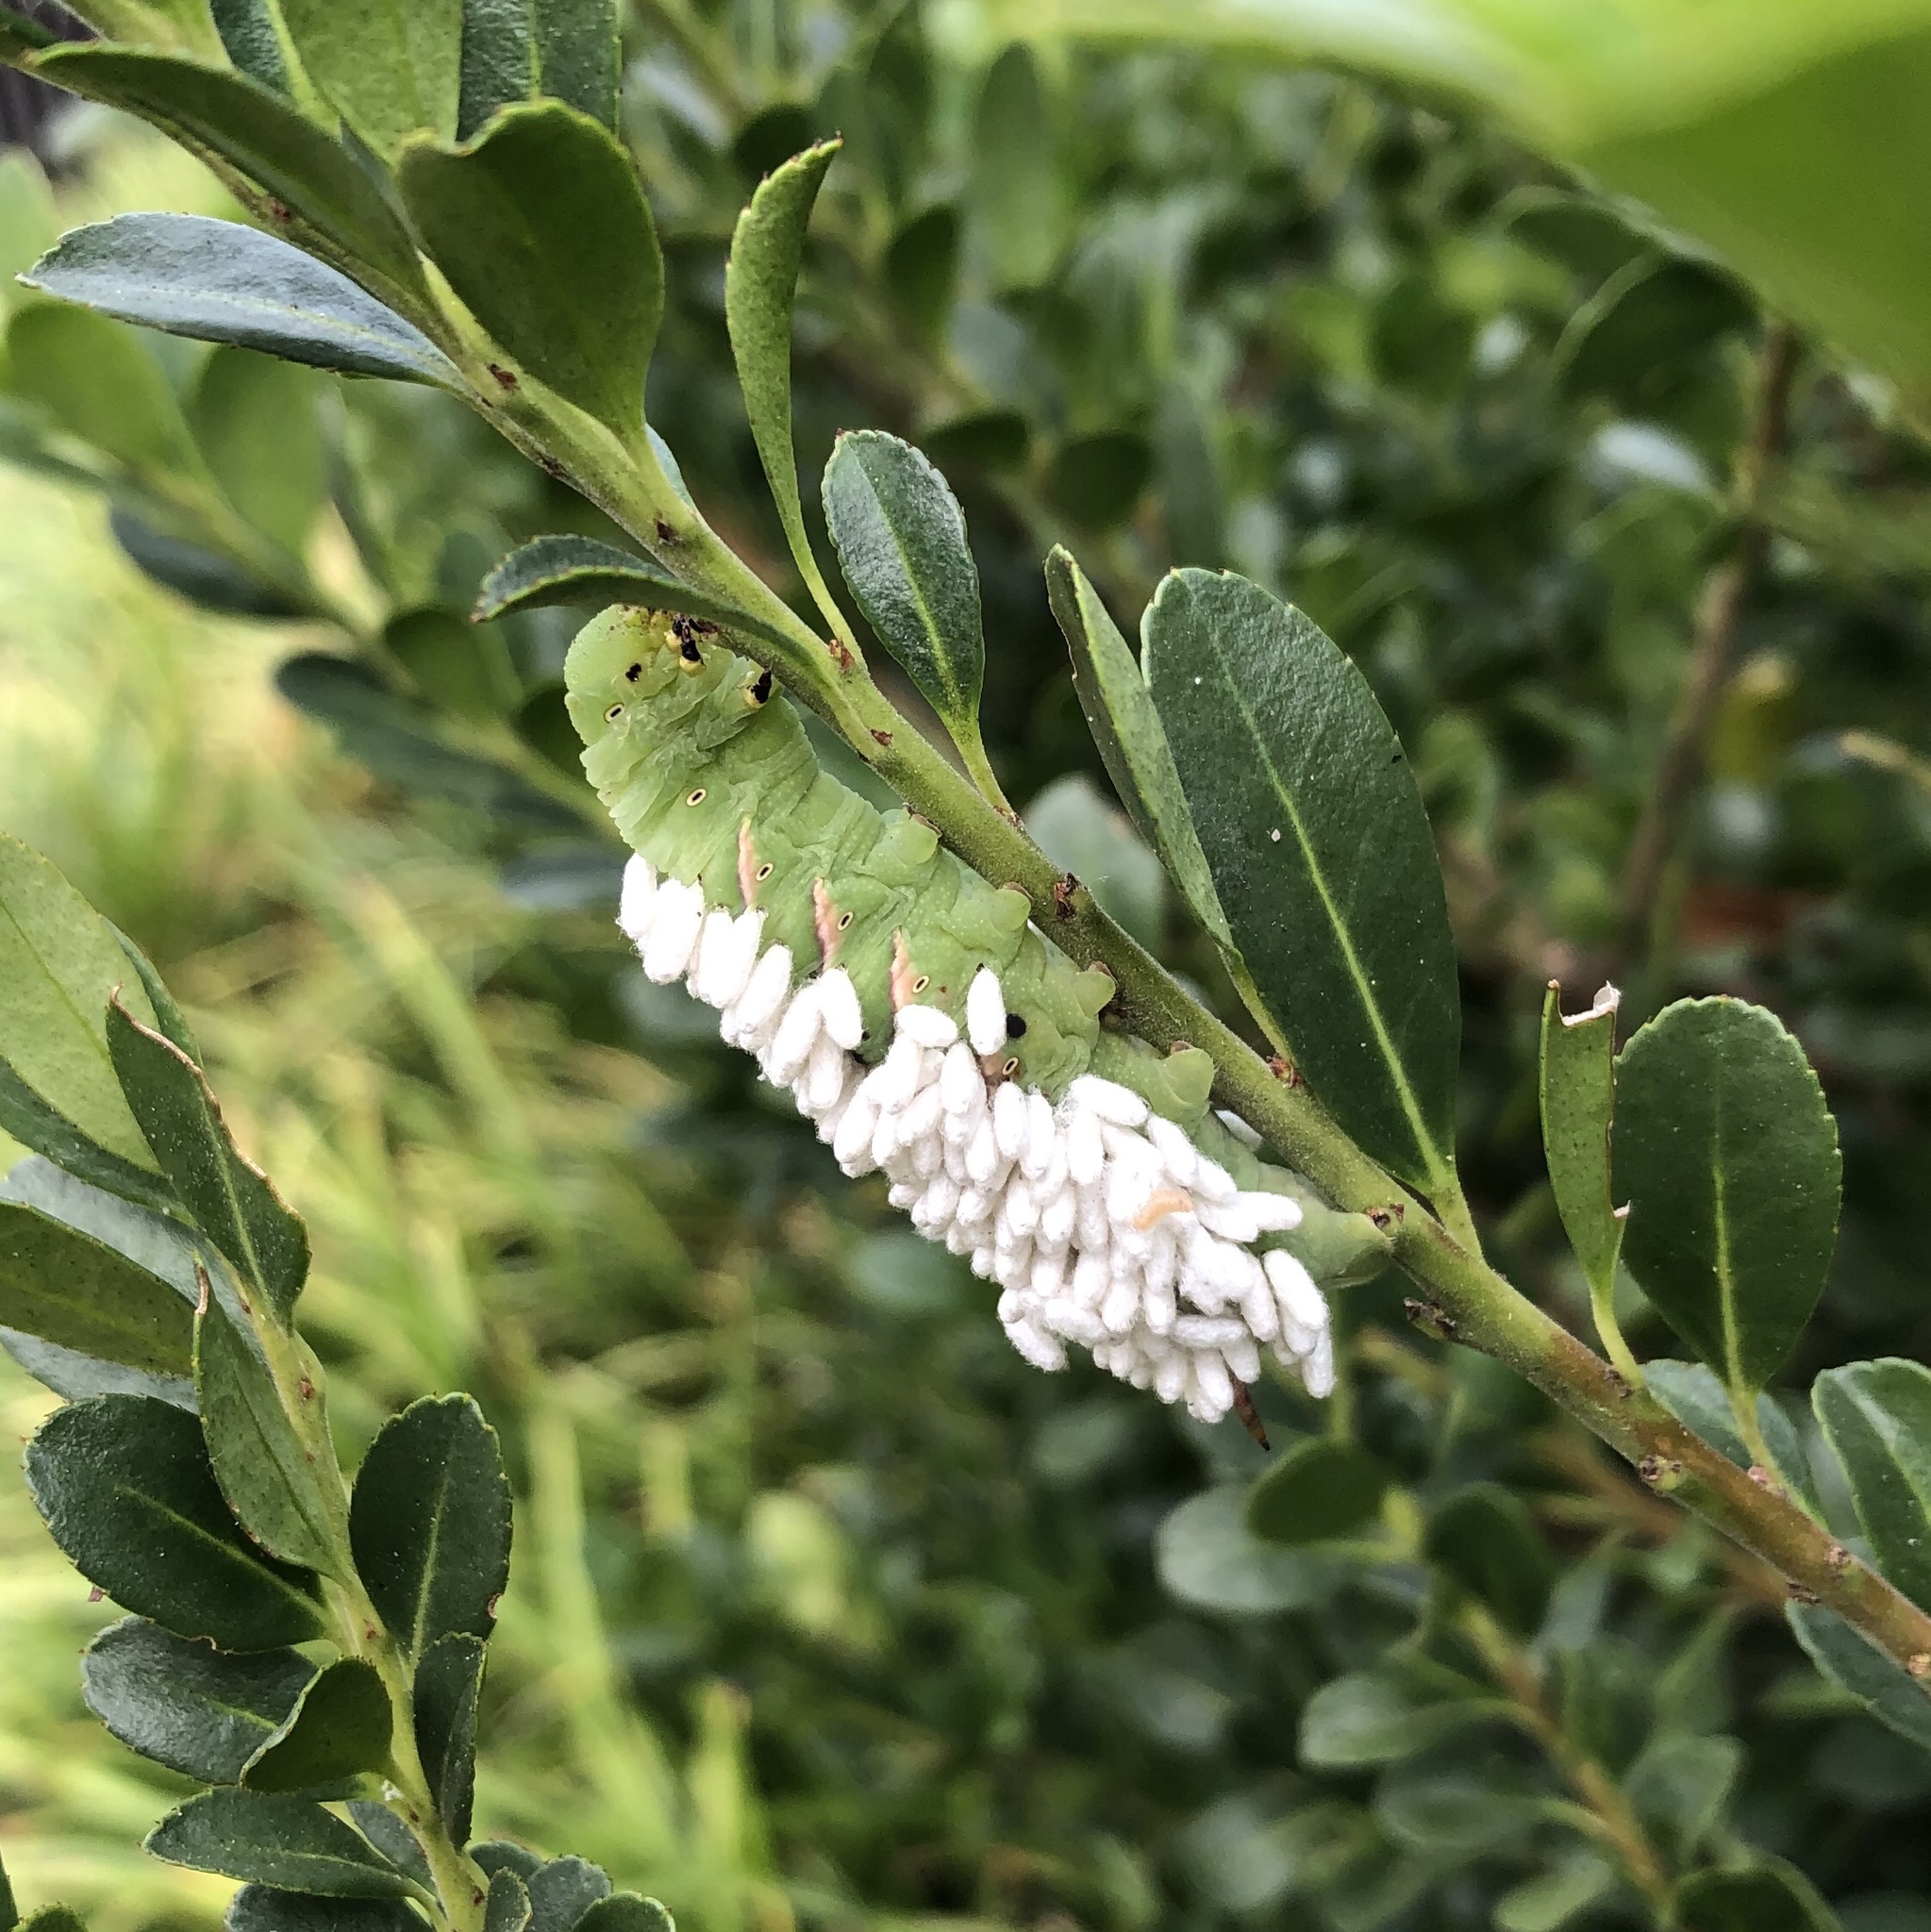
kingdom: Animalia
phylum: Arthropoda
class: Insecta
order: Hymenoptera
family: Braconidae
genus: Cotesia
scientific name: Cotesia congregata
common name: Hornworm parasitoid wasp
